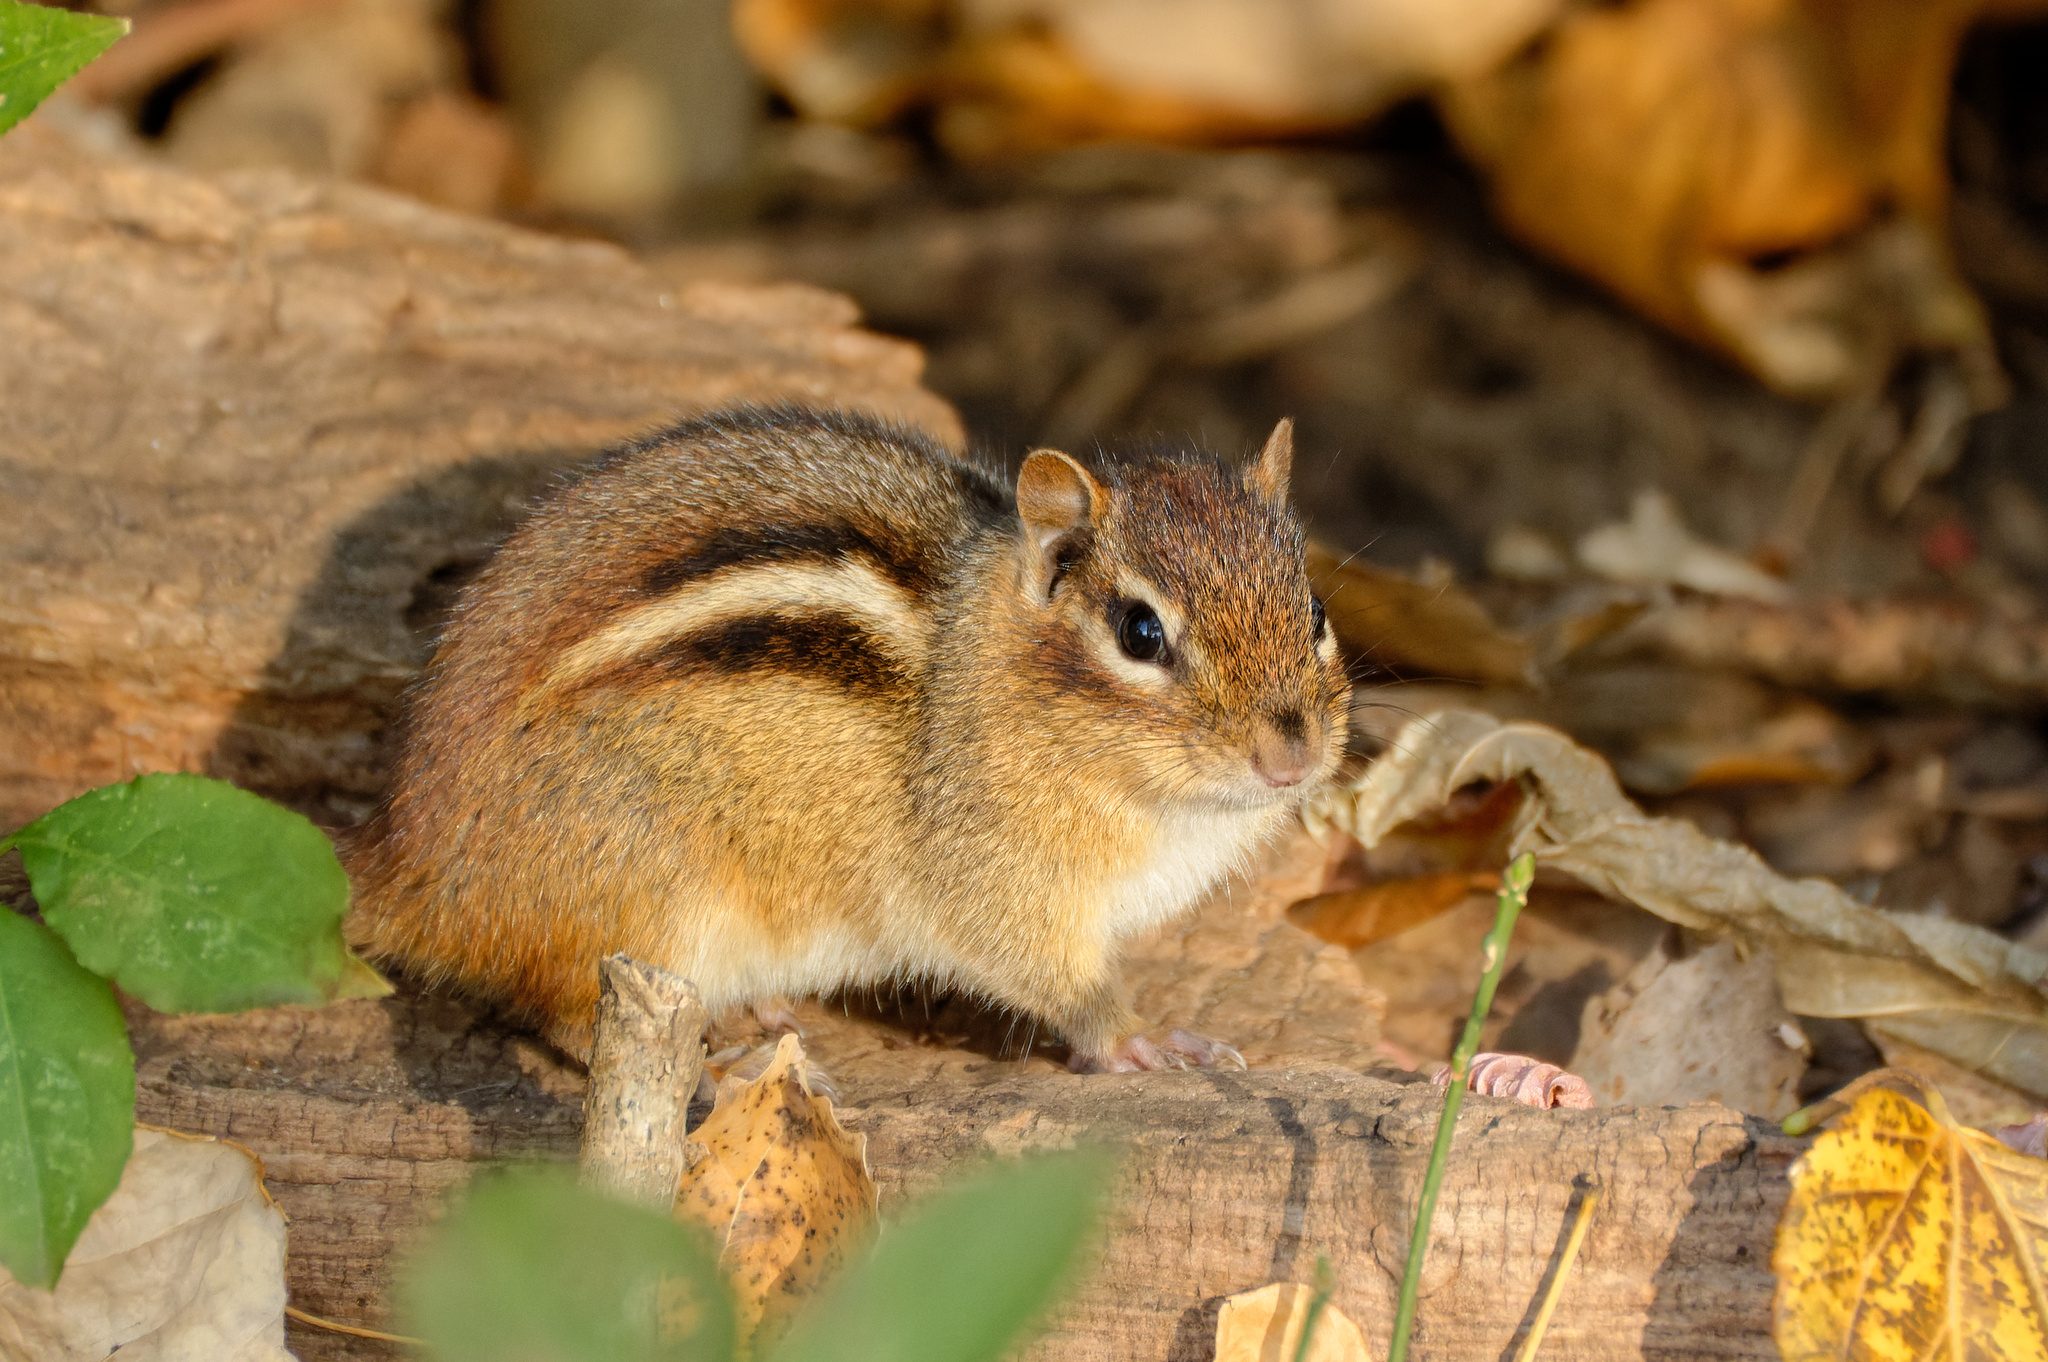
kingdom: Animalia
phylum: Chordata
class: Mammalia
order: Rodentia
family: Sciuridae
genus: Tamias
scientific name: Tamias striatus
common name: Eastern chipmunk
